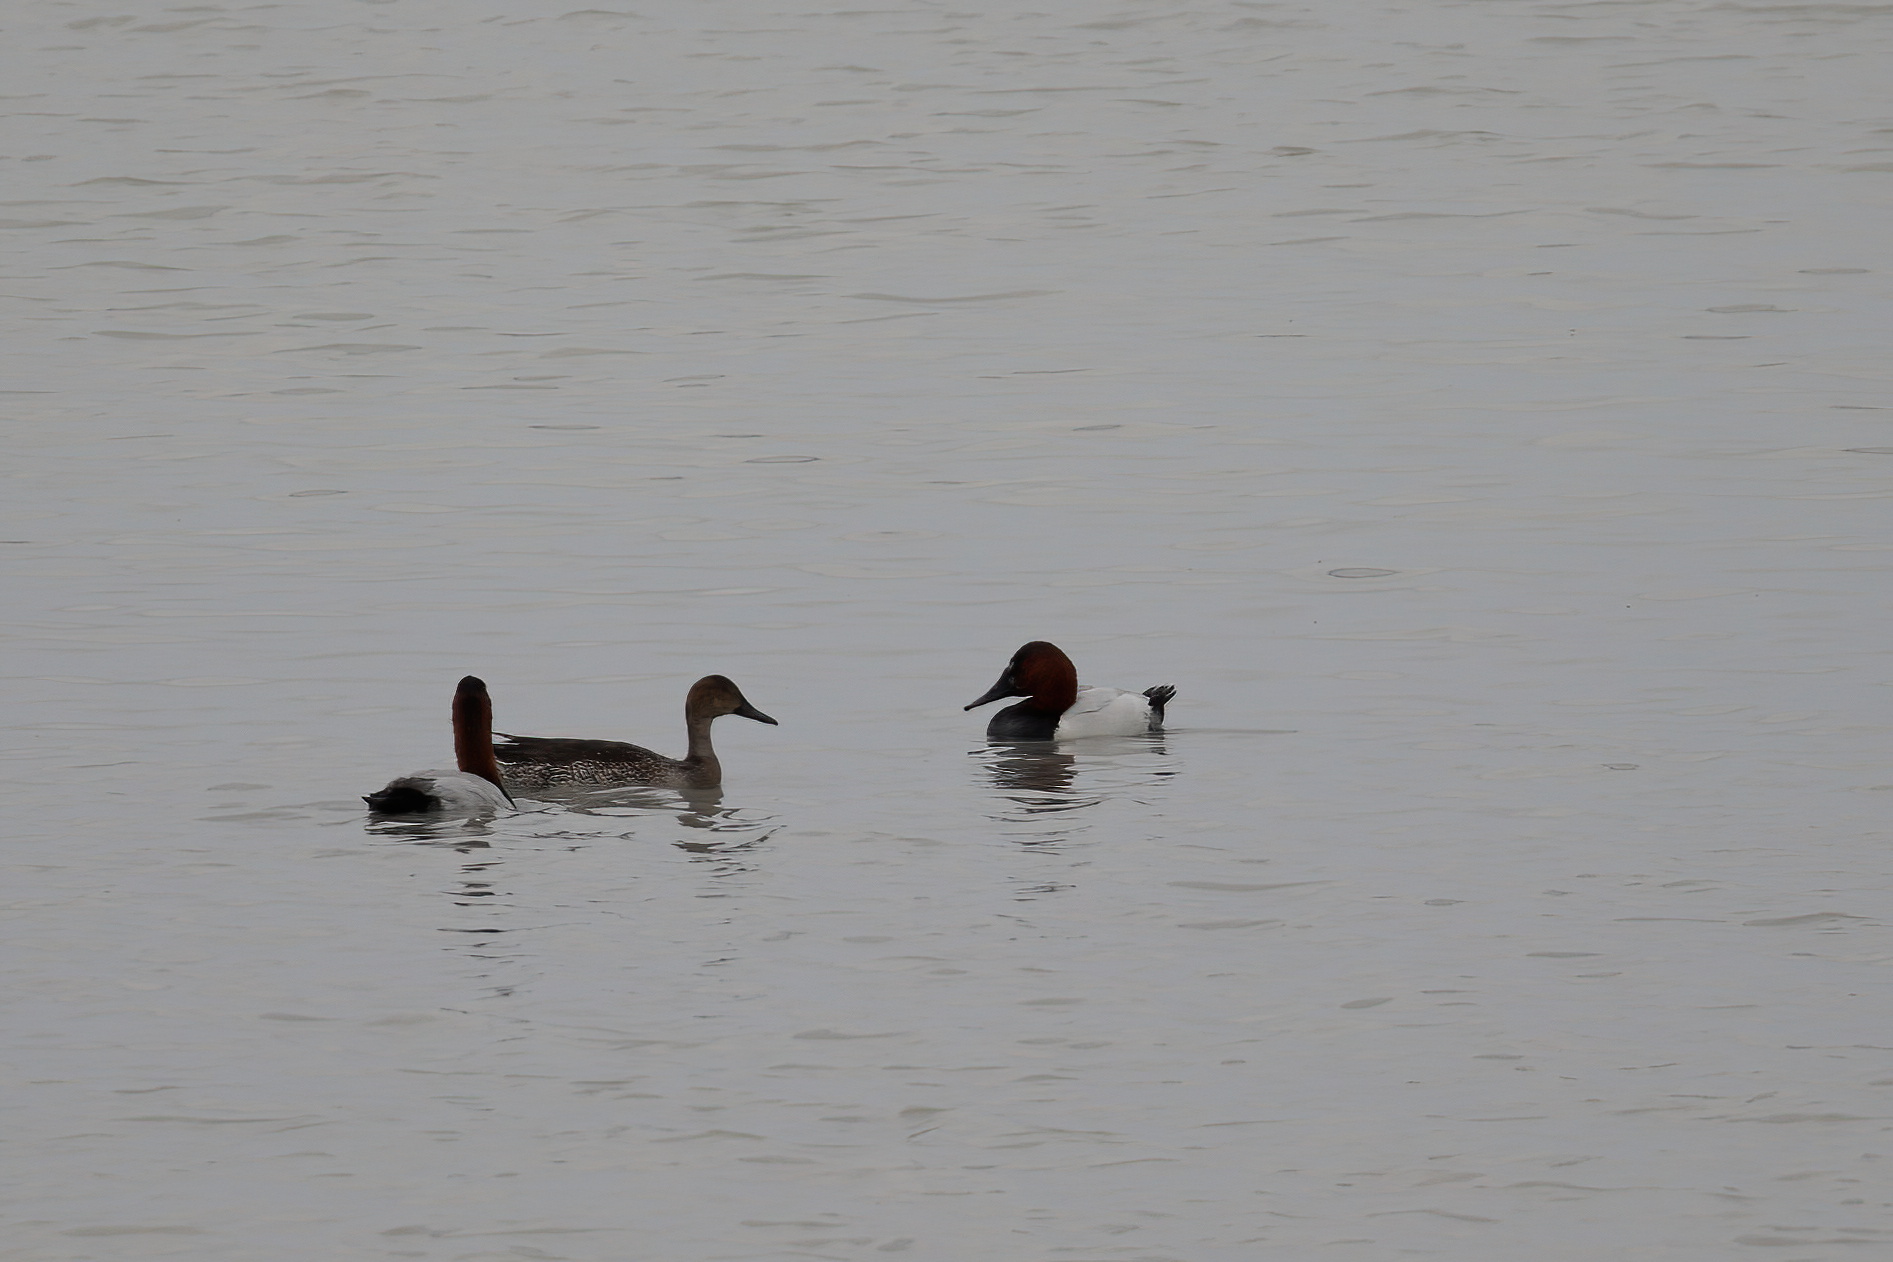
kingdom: Animalia
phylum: Chordata
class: Aves
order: Anseriformes
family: Anatidae
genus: Aythya
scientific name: Aythya valisineria
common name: Canvasback
